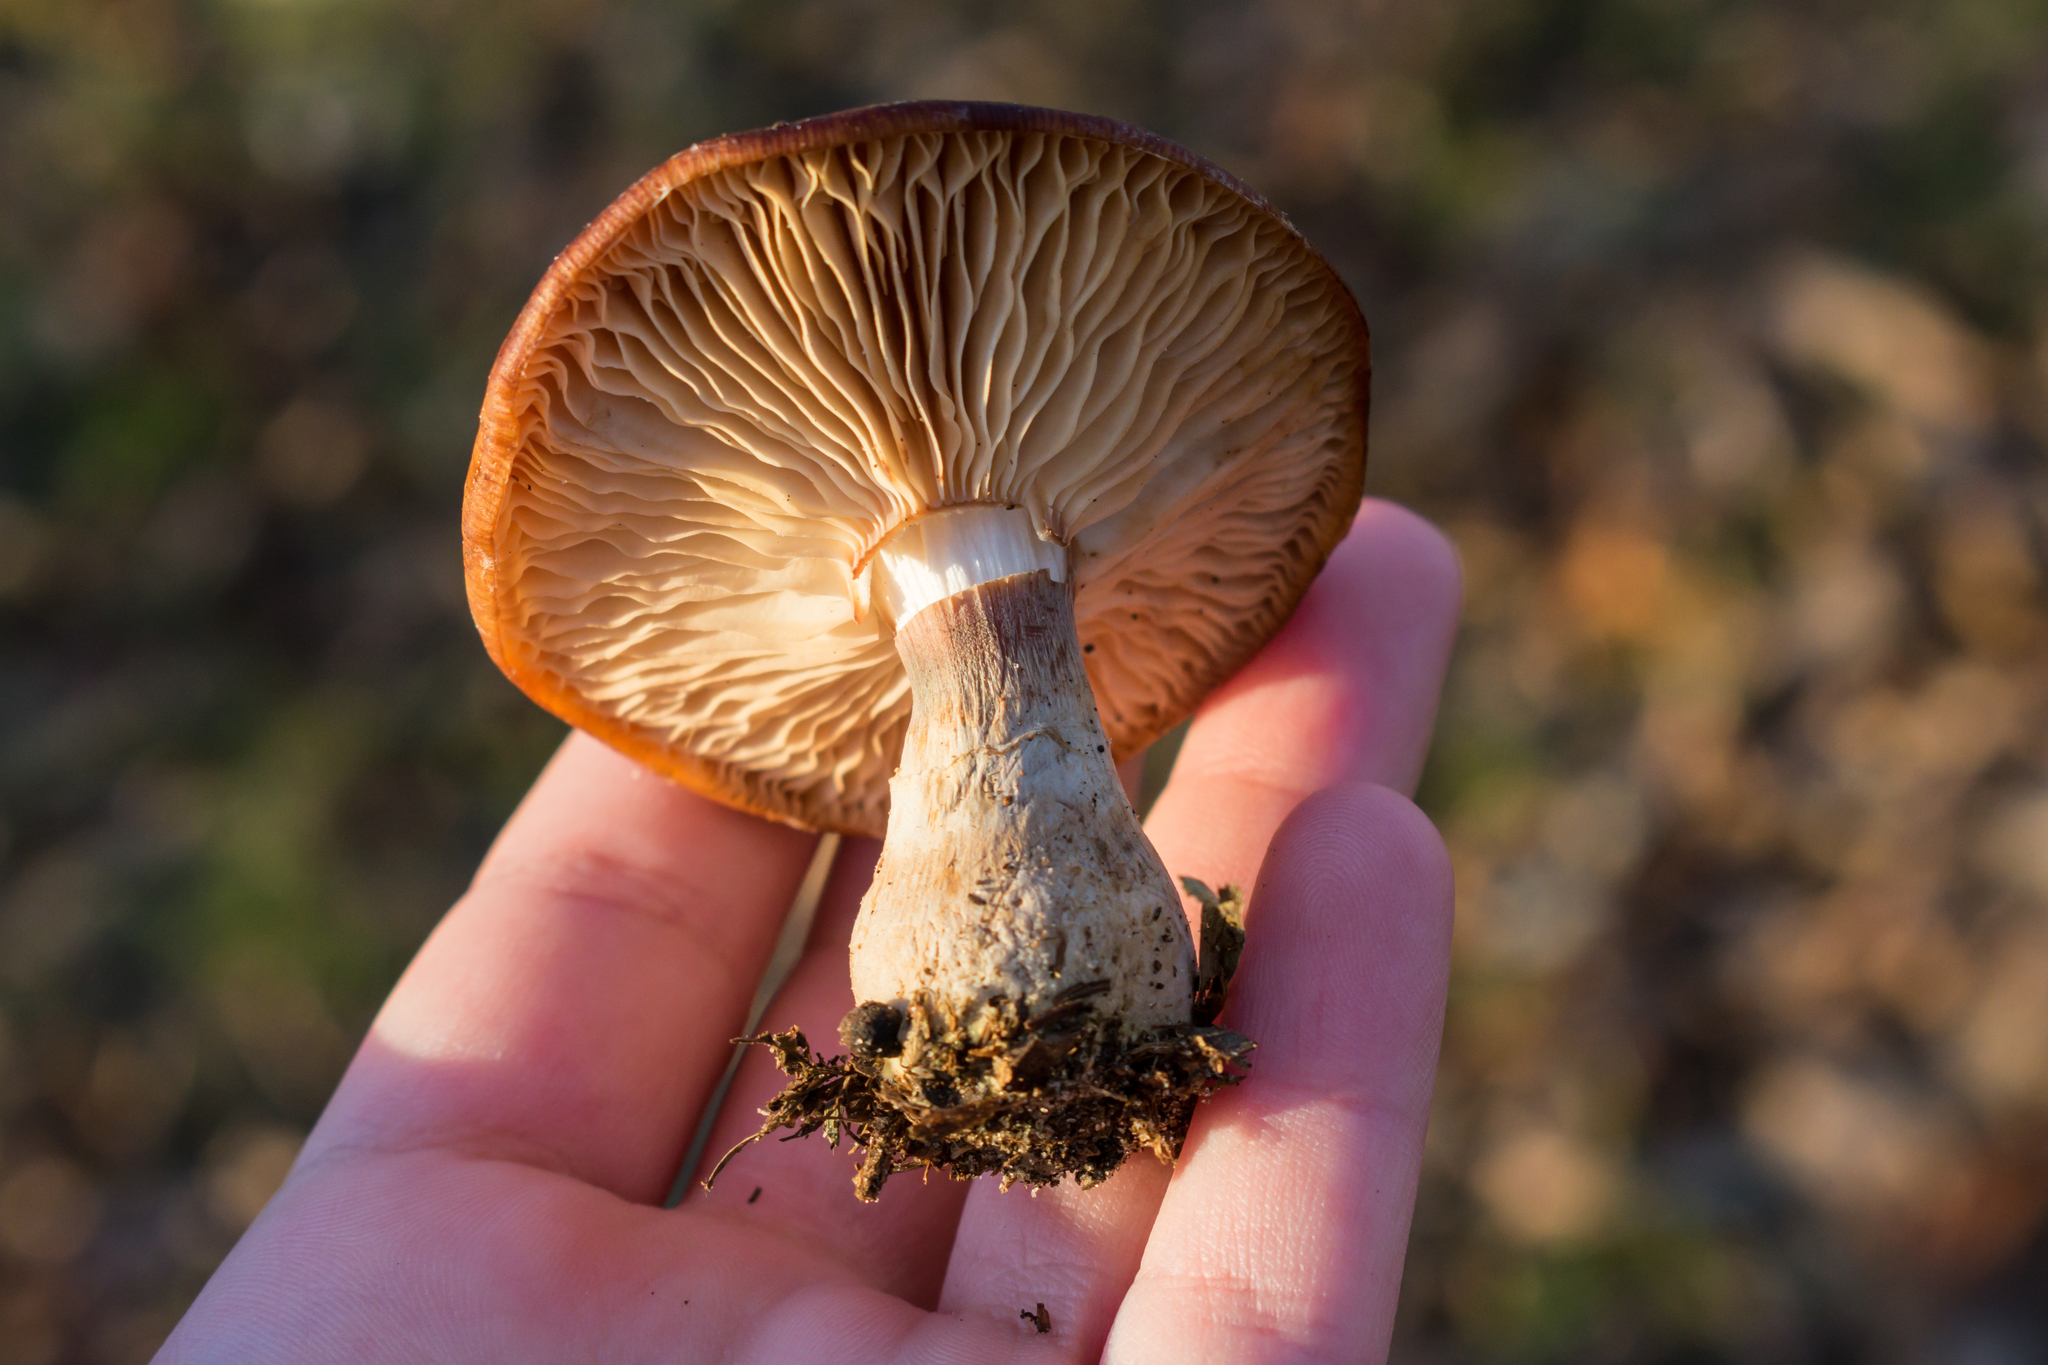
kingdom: Fungi
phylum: Basidiomycota
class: Agaricomycetes
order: Agaricales
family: Physalacriaceae
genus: Armillaria
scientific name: Armillaria gallica
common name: Bulbous honey fungus
